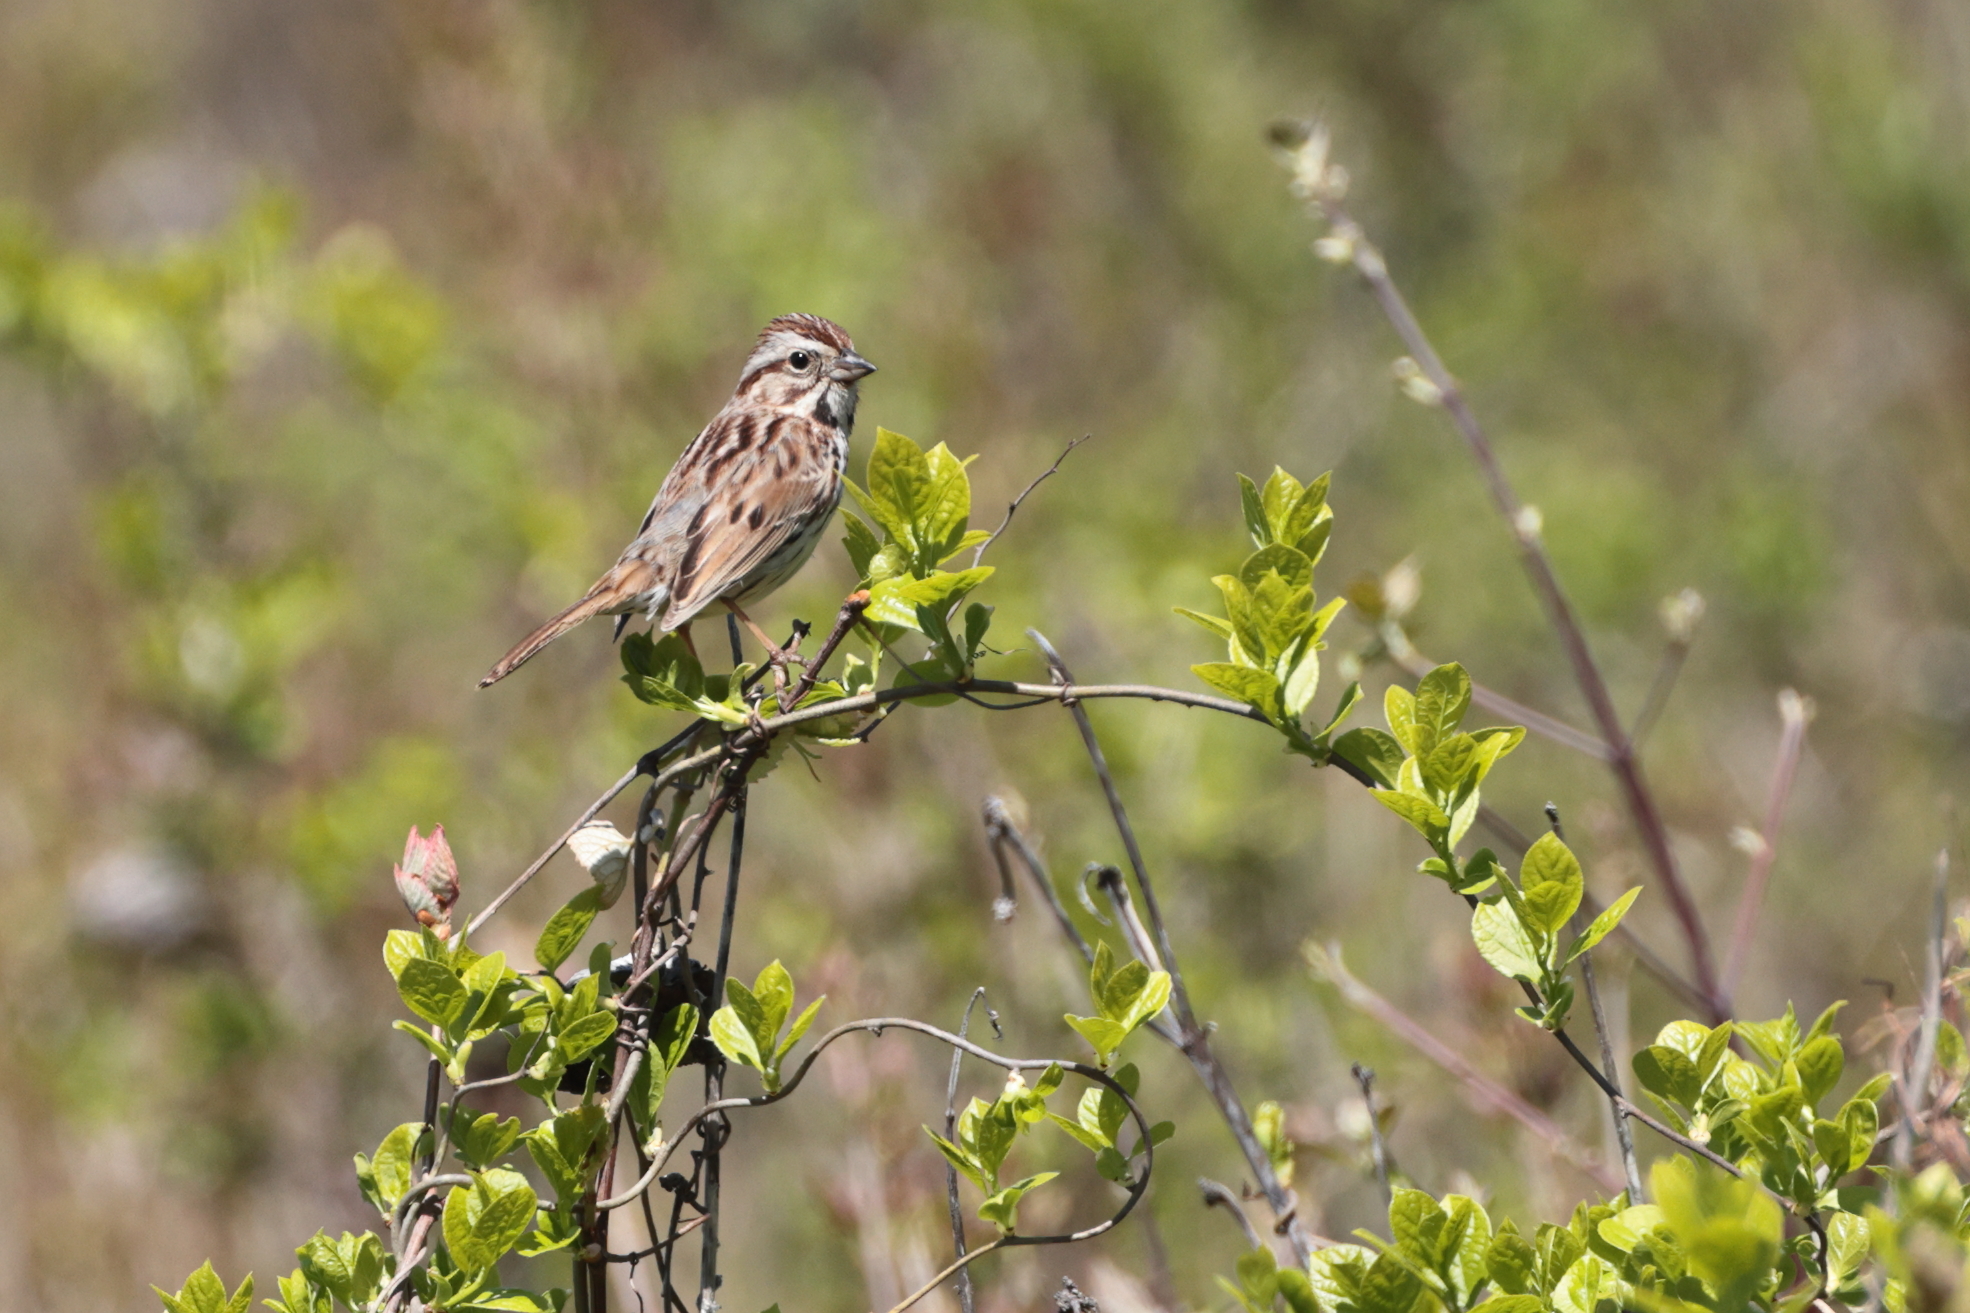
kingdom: Animalia
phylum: Chordata
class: Aves
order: Passeriformes
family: Passerellidae
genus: Melospiza
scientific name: Melospiza melodia
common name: Song sparrow
